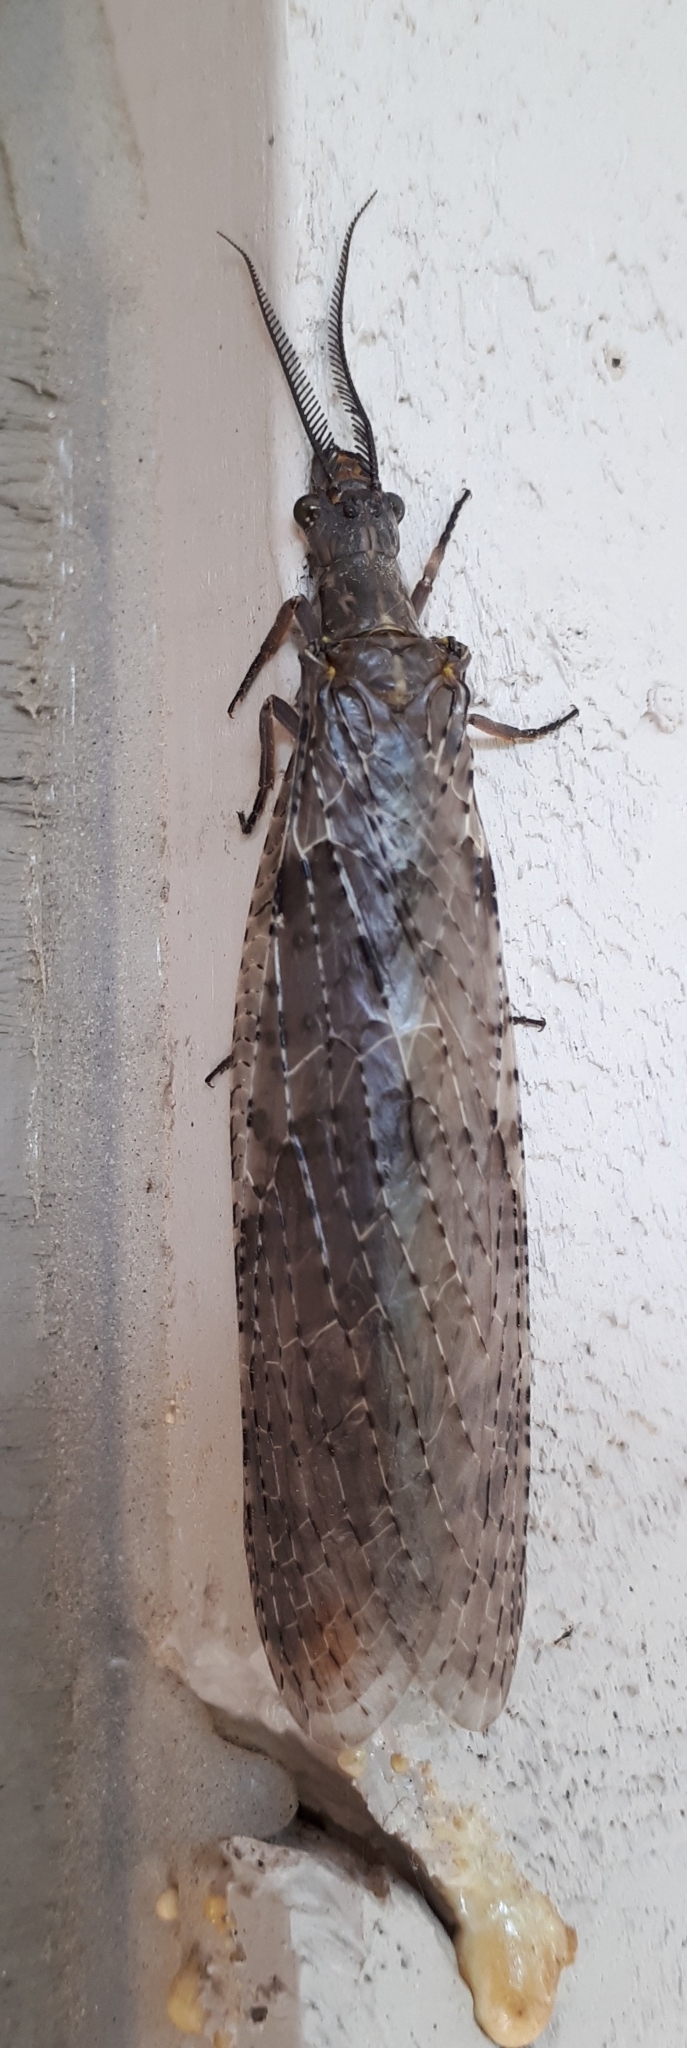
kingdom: Animalia
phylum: Arthropoda
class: Insecta
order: Megaloptera
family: Corydalidae
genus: Chauliodes
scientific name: Chauliodes pectinicornis
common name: Summer fishfly
